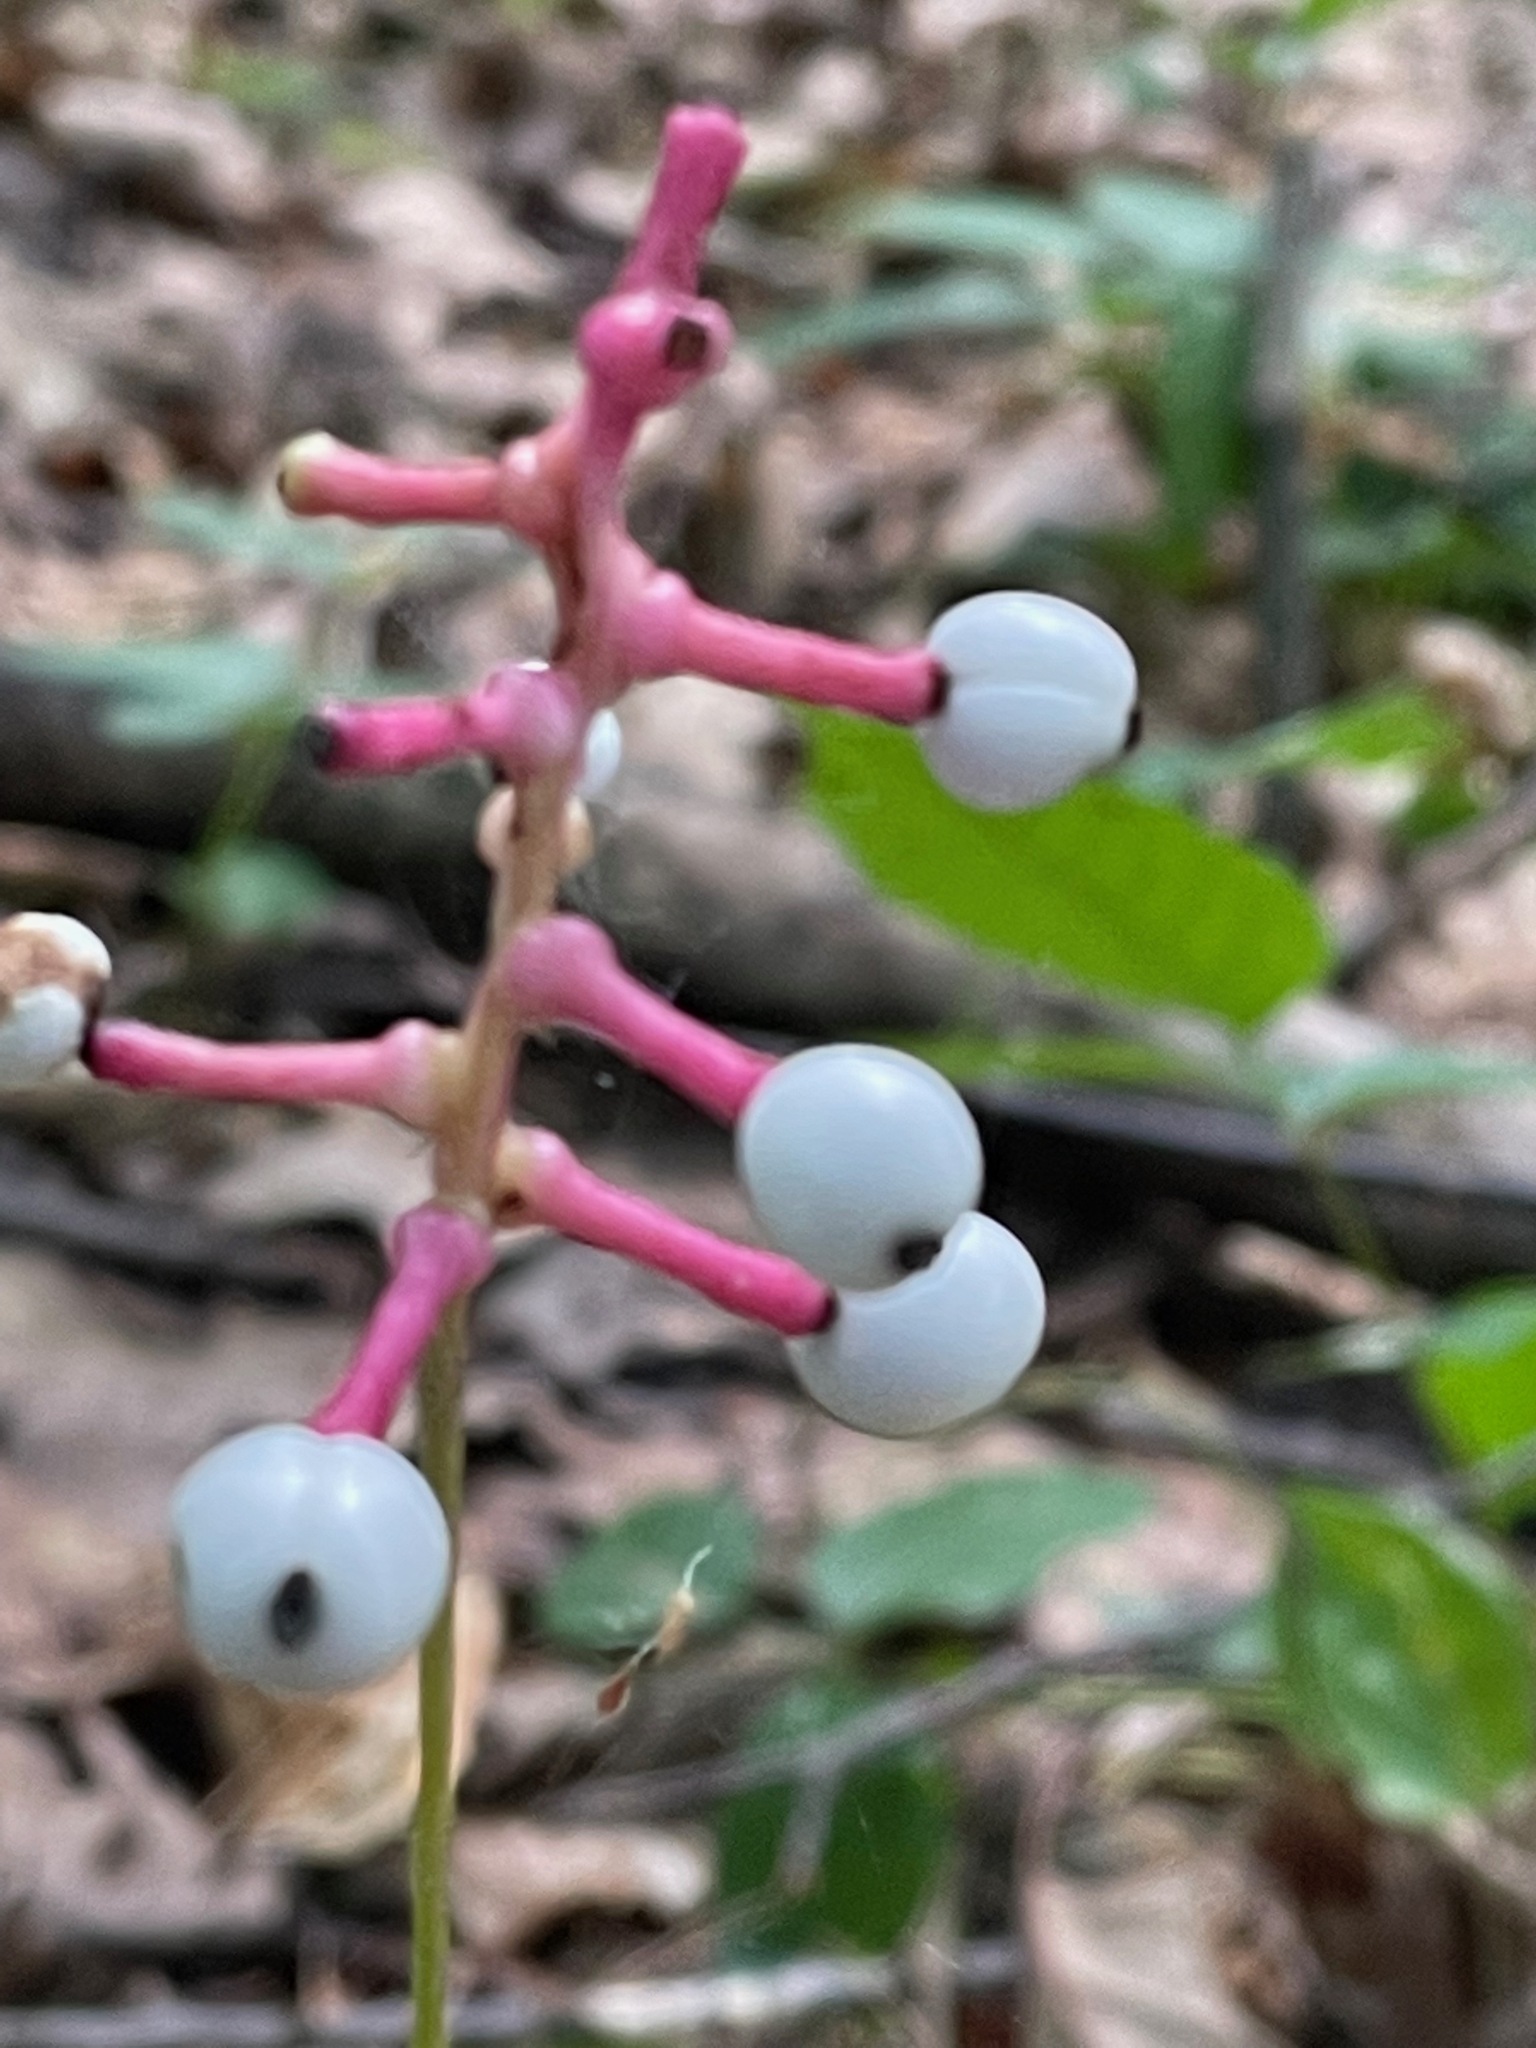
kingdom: Plantae
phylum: Tracheophyta
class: Magnoliopsida
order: Ranunculales
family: Ranunculaceae
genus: Actaea
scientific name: Actaea pachypoda
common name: Doll's-eyes
